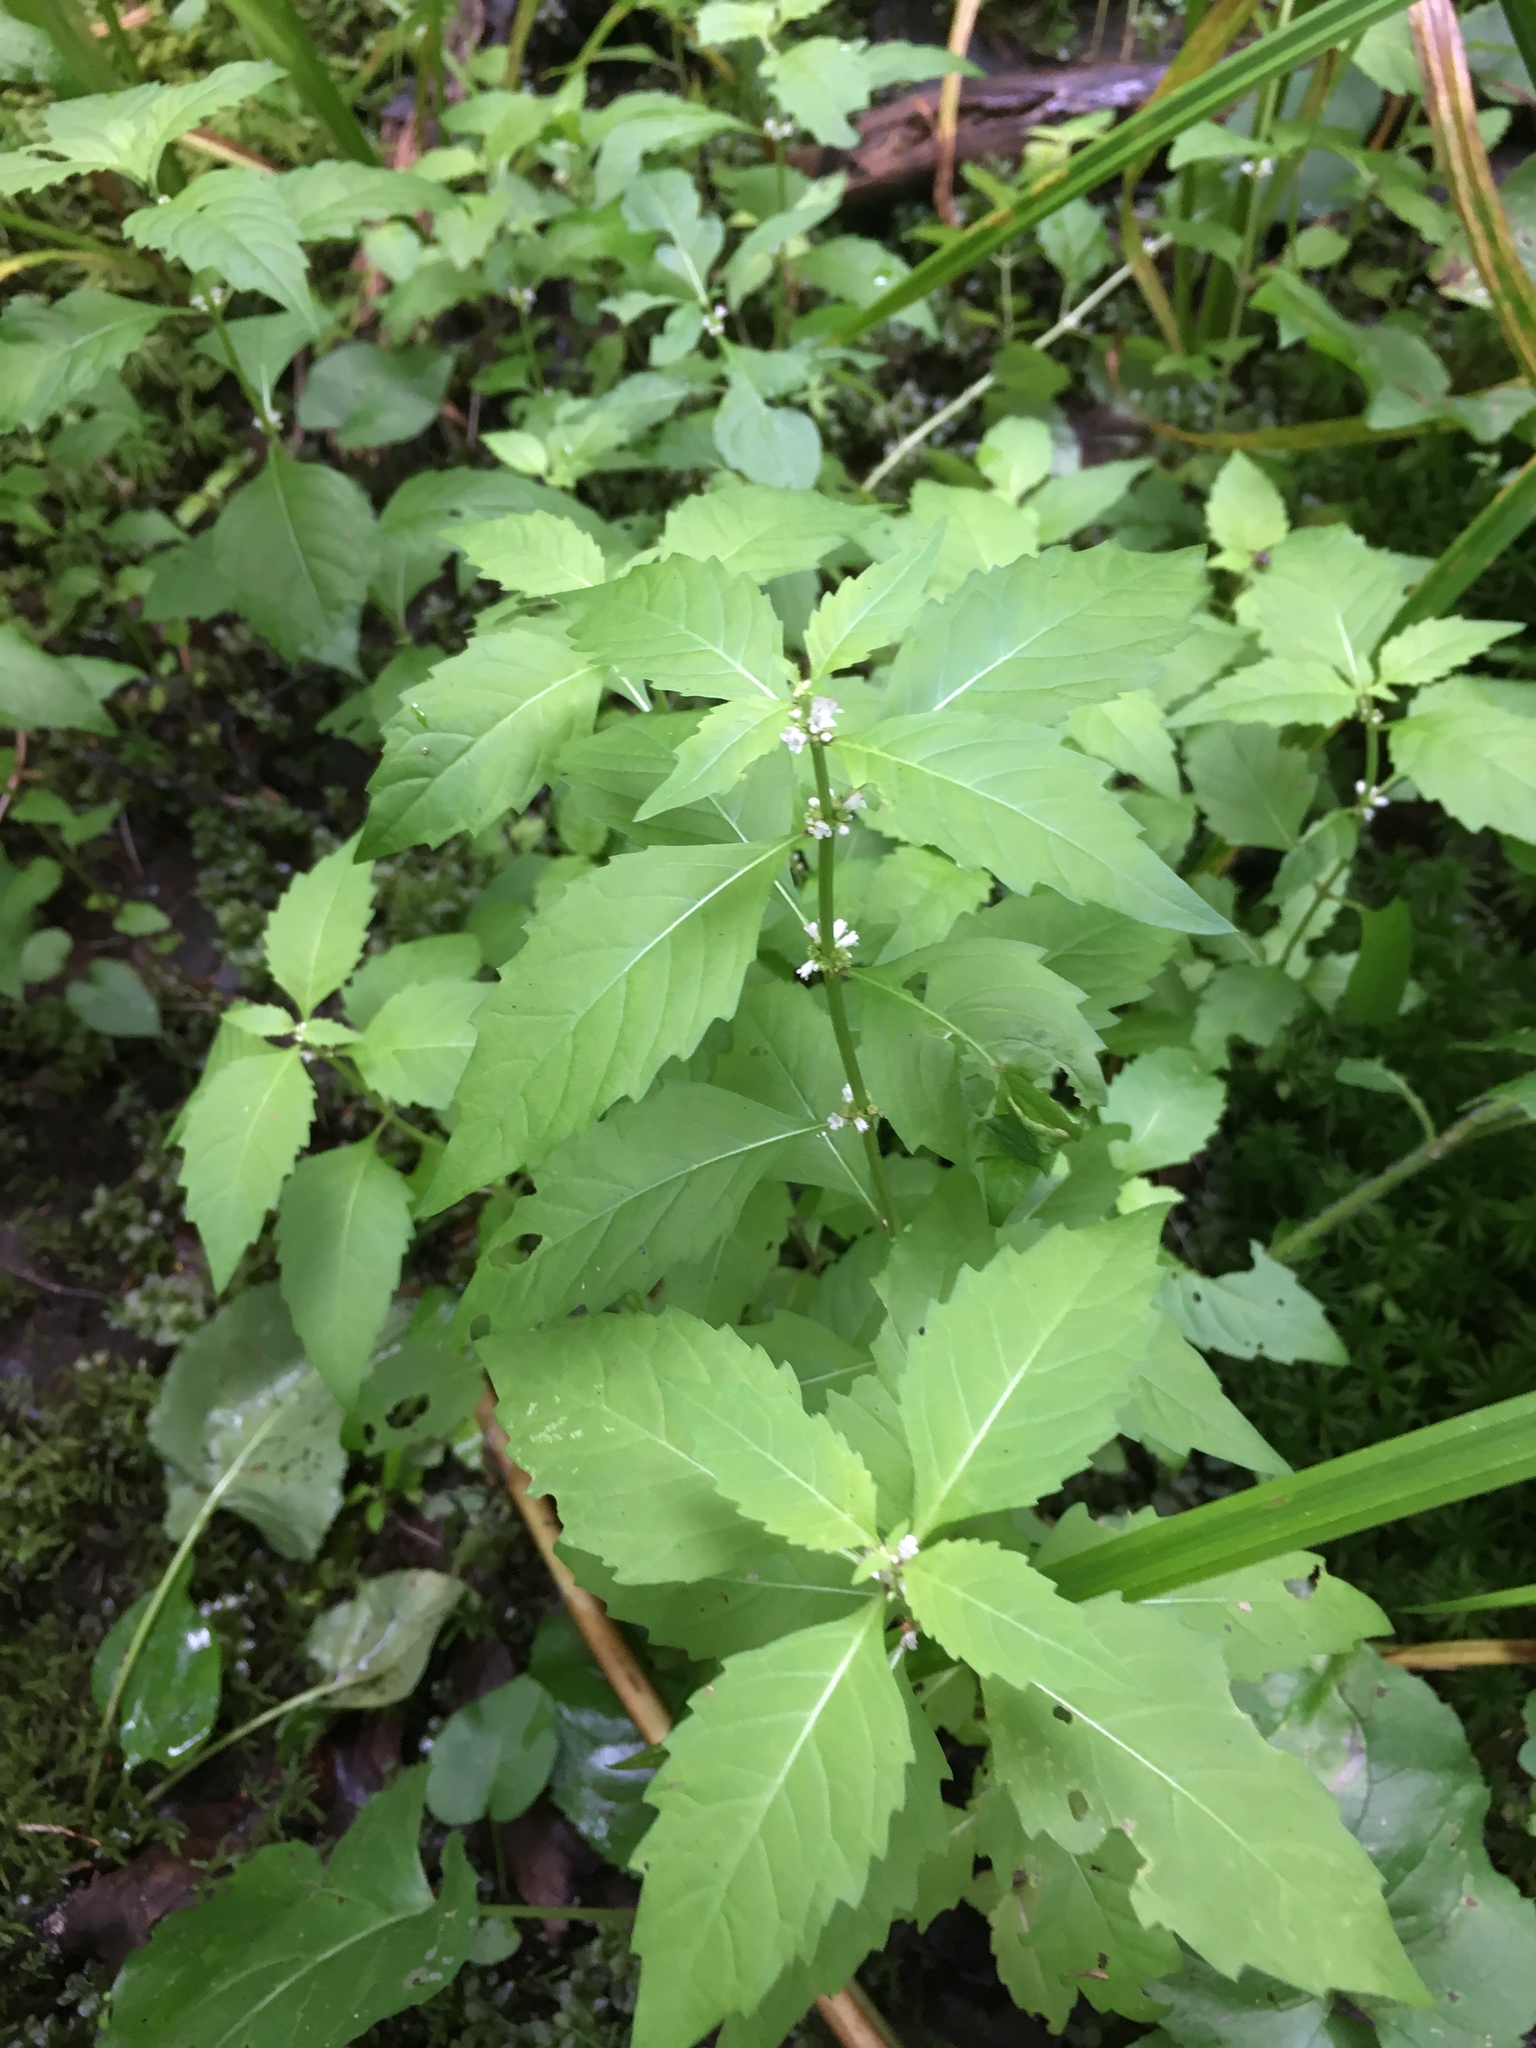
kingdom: Plantae
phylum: Tracheophyta
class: Magnoliopsida
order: Lamiales
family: Lamiaceae
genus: Lycopus
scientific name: Lycopus uniflorus
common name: Northern bugleweed
